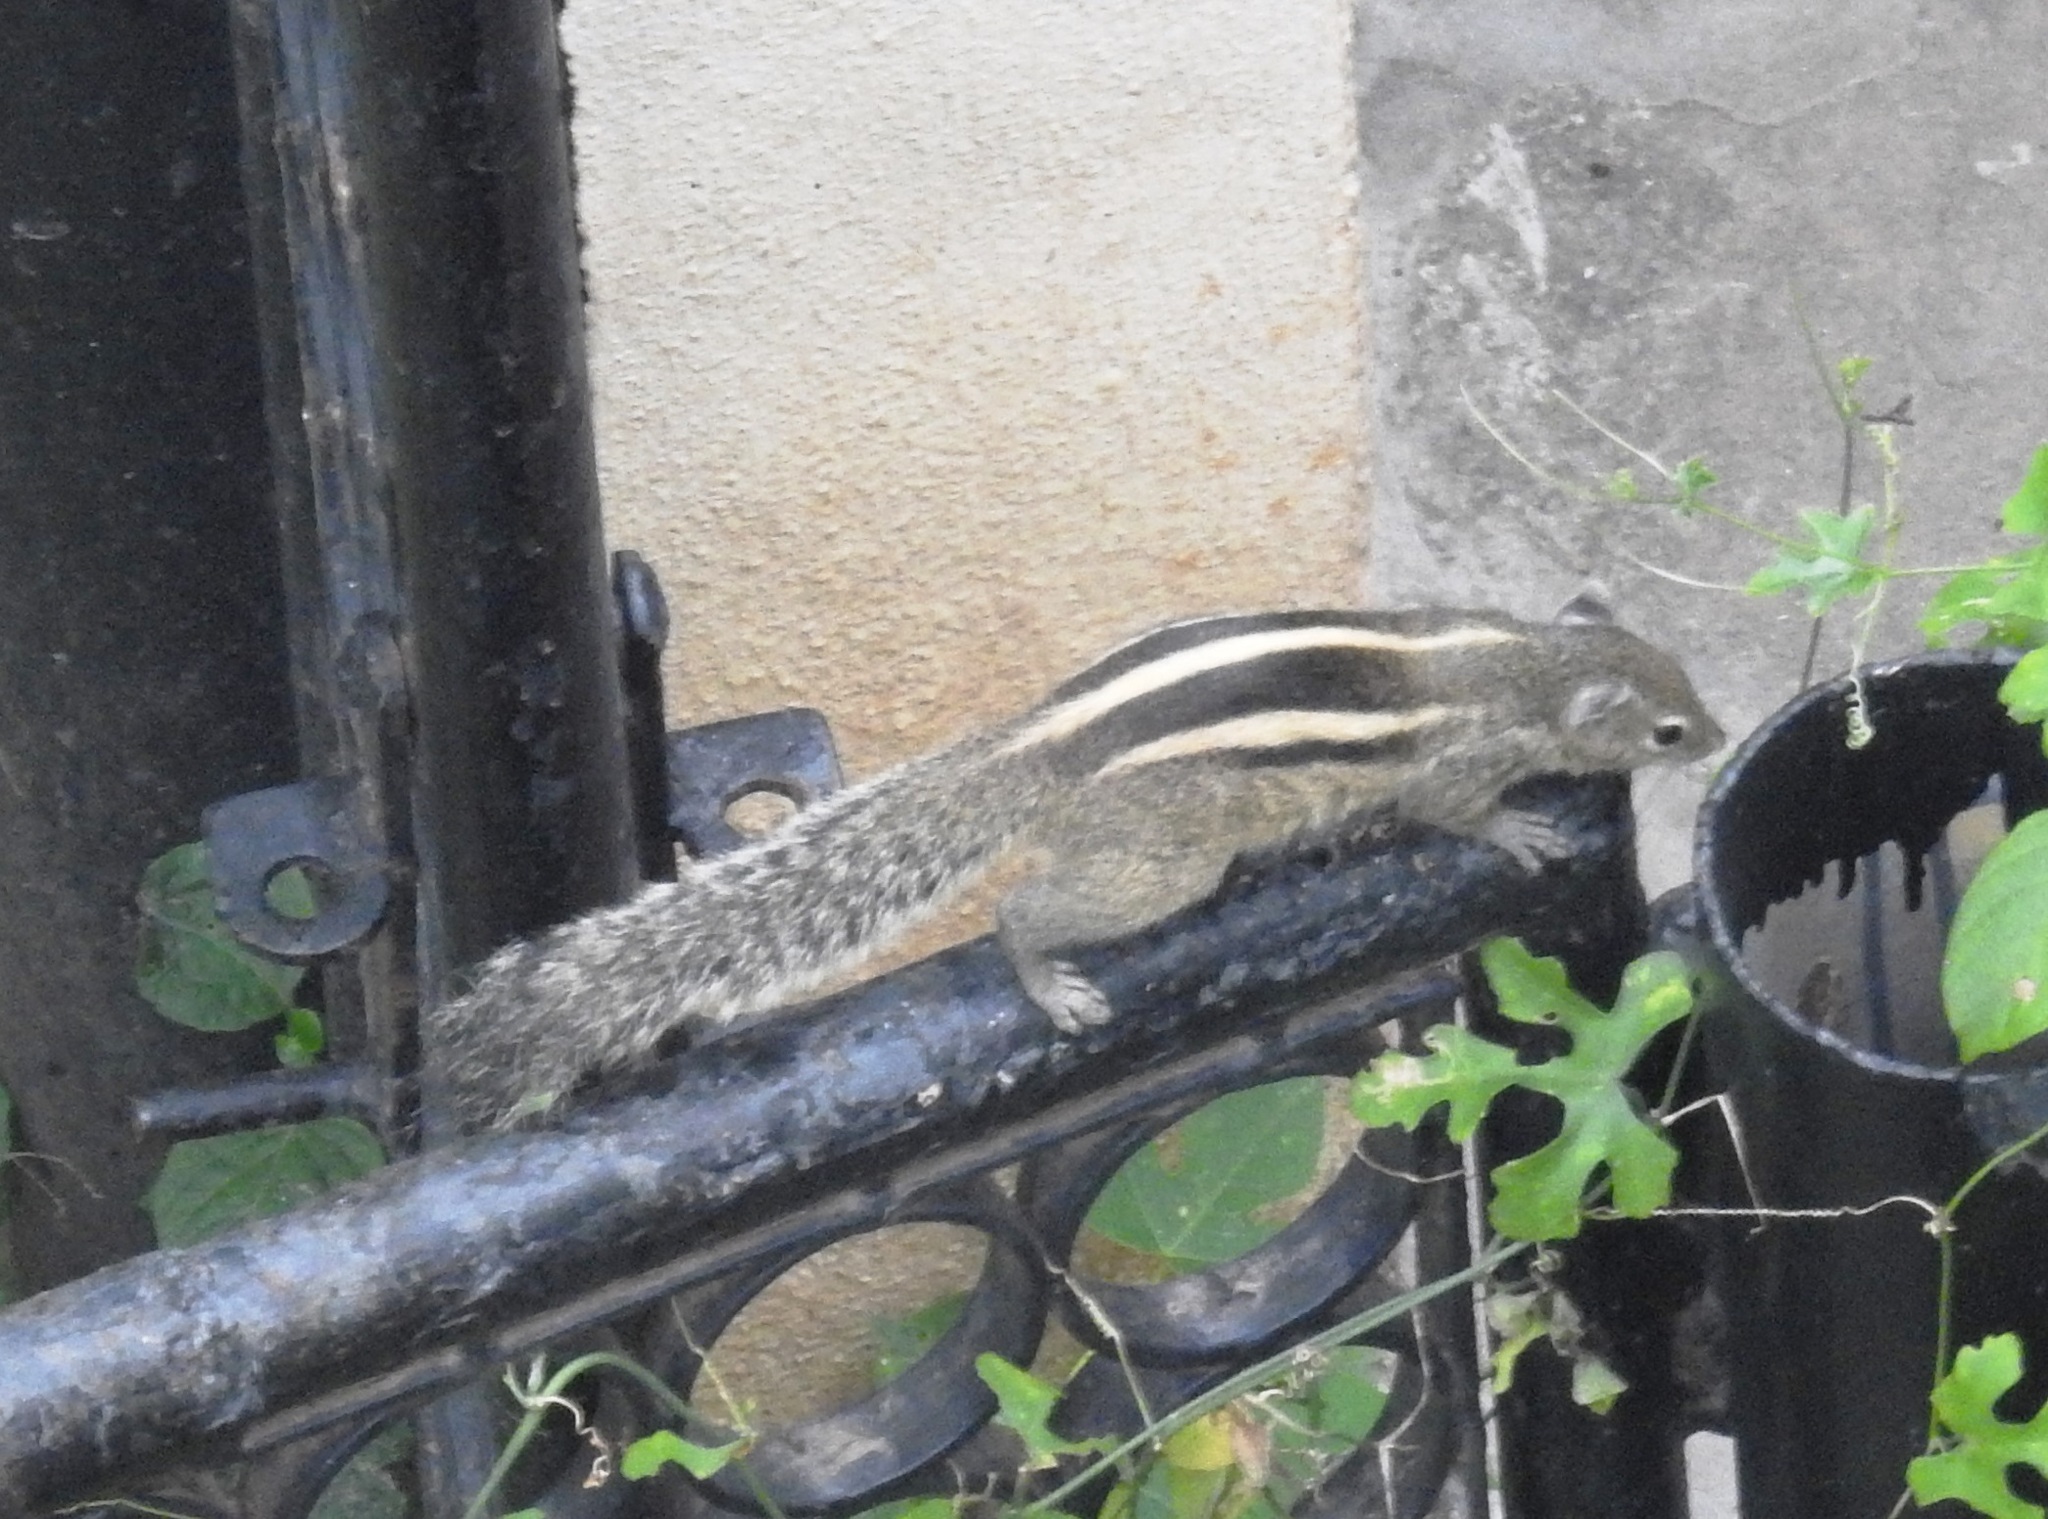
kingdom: Animalia
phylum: Chordata
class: Mammalia
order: Rodentia
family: Sciuridae
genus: Funambulus
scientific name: Funambulus palmarum
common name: Indian palm squirrel
